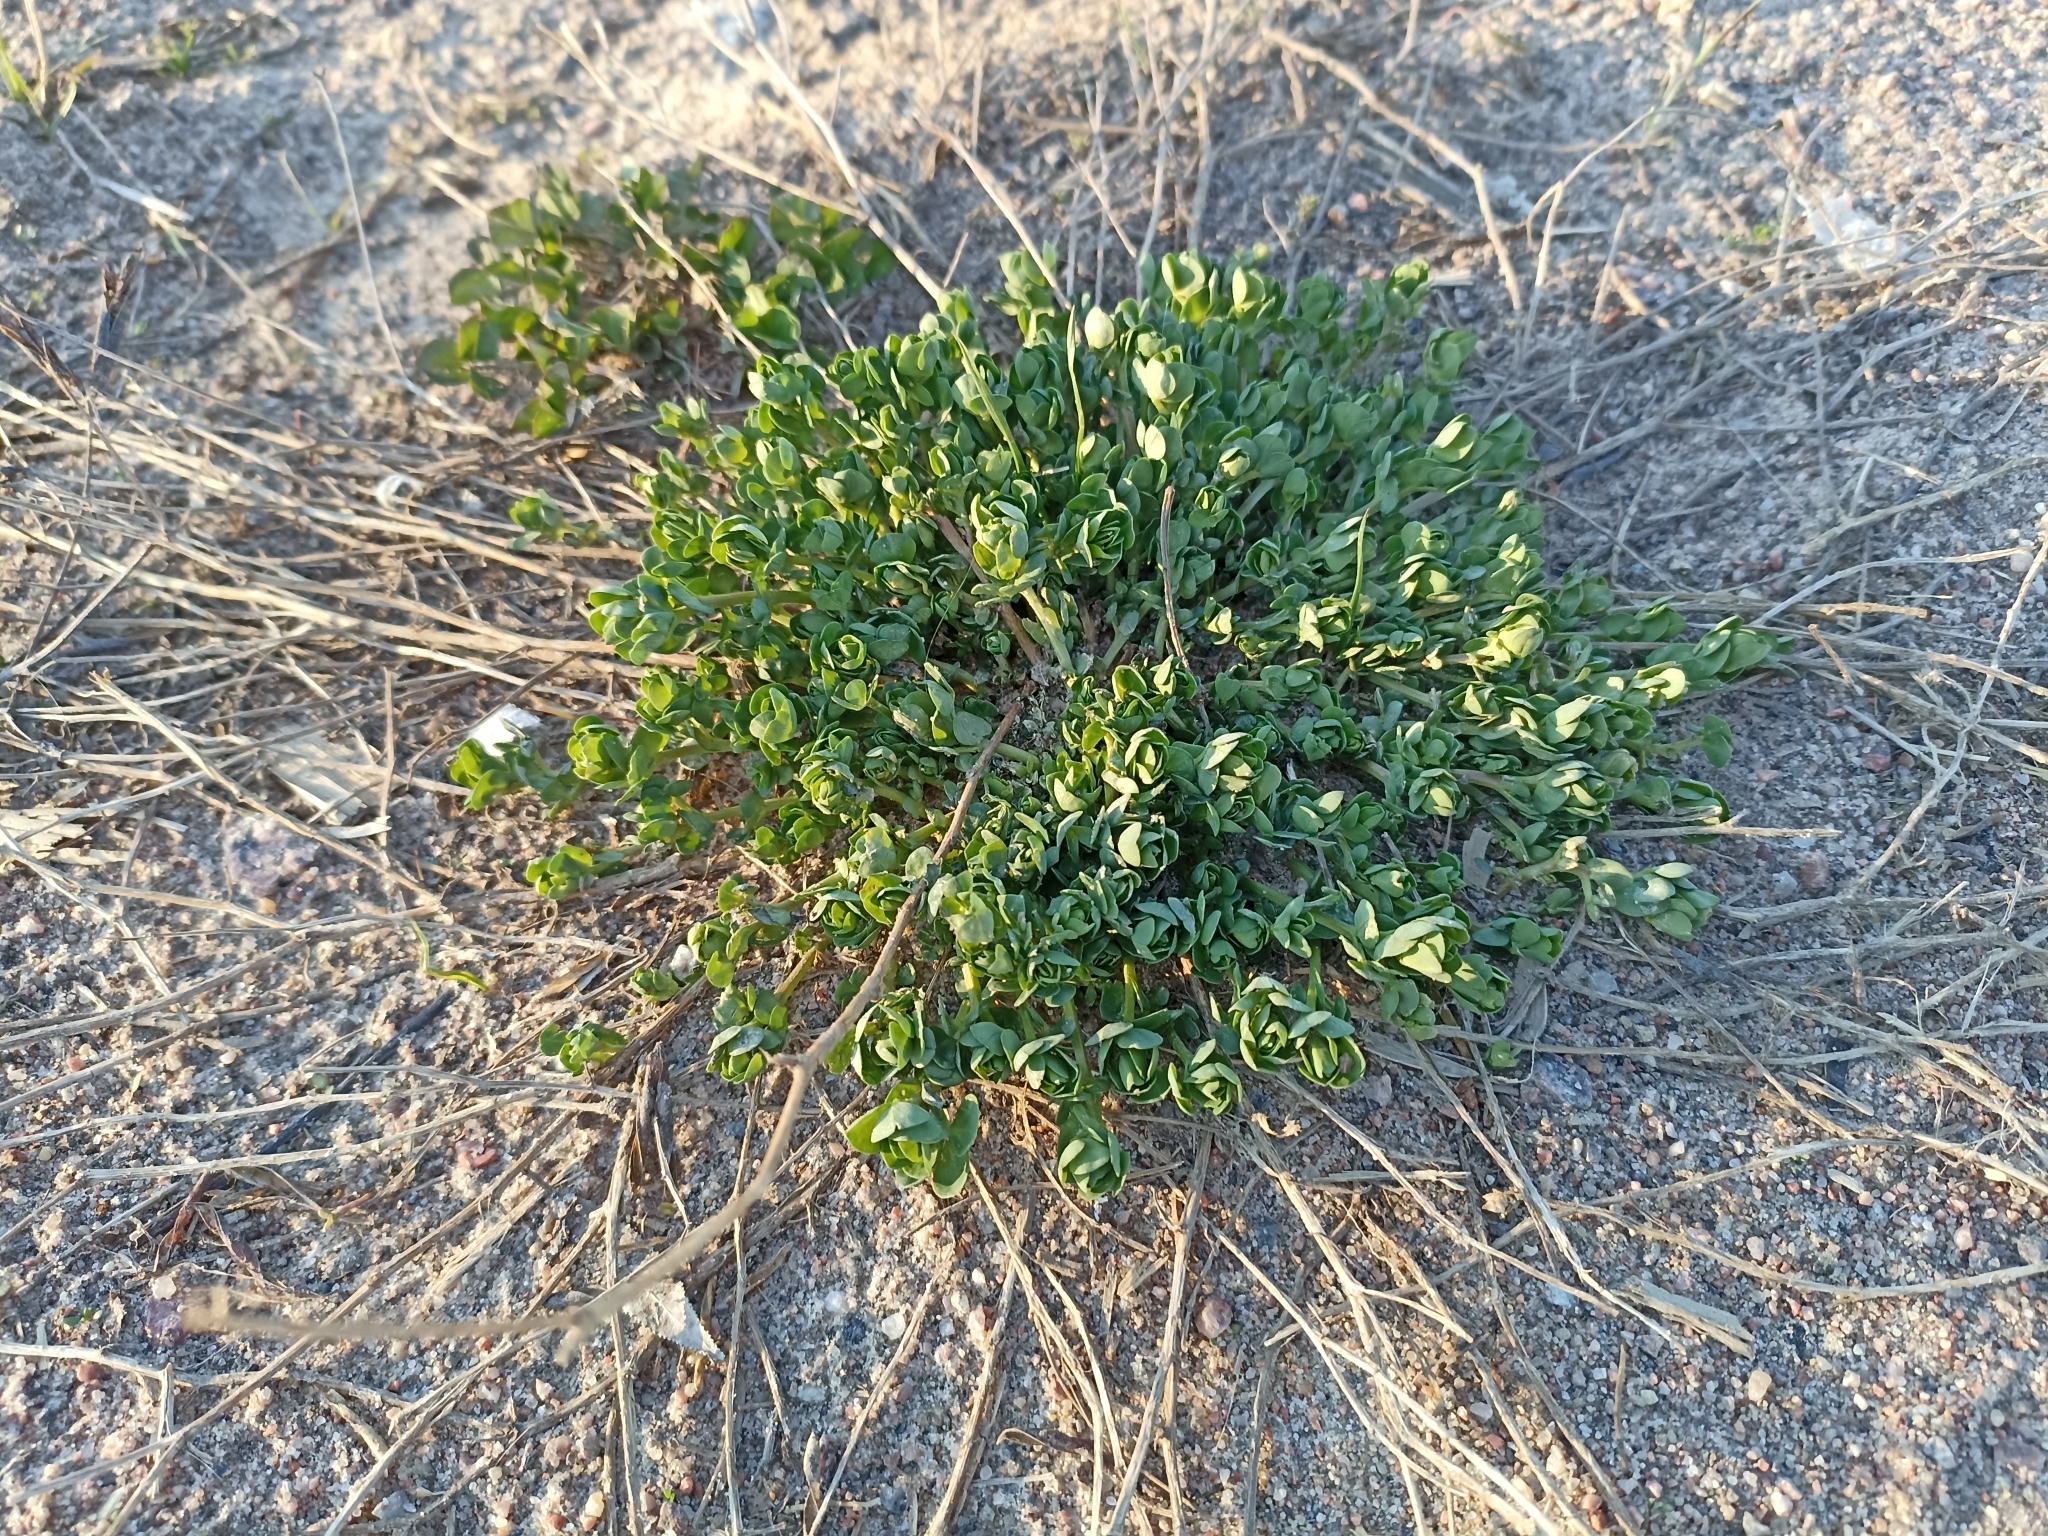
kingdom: Plantae
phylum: Tracheophyta
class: Magnoliopsida
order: Fabales
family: Fabaceae
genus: Lotus
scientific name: Lotus corniculatus
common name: Common bird's-foot-trefoil
